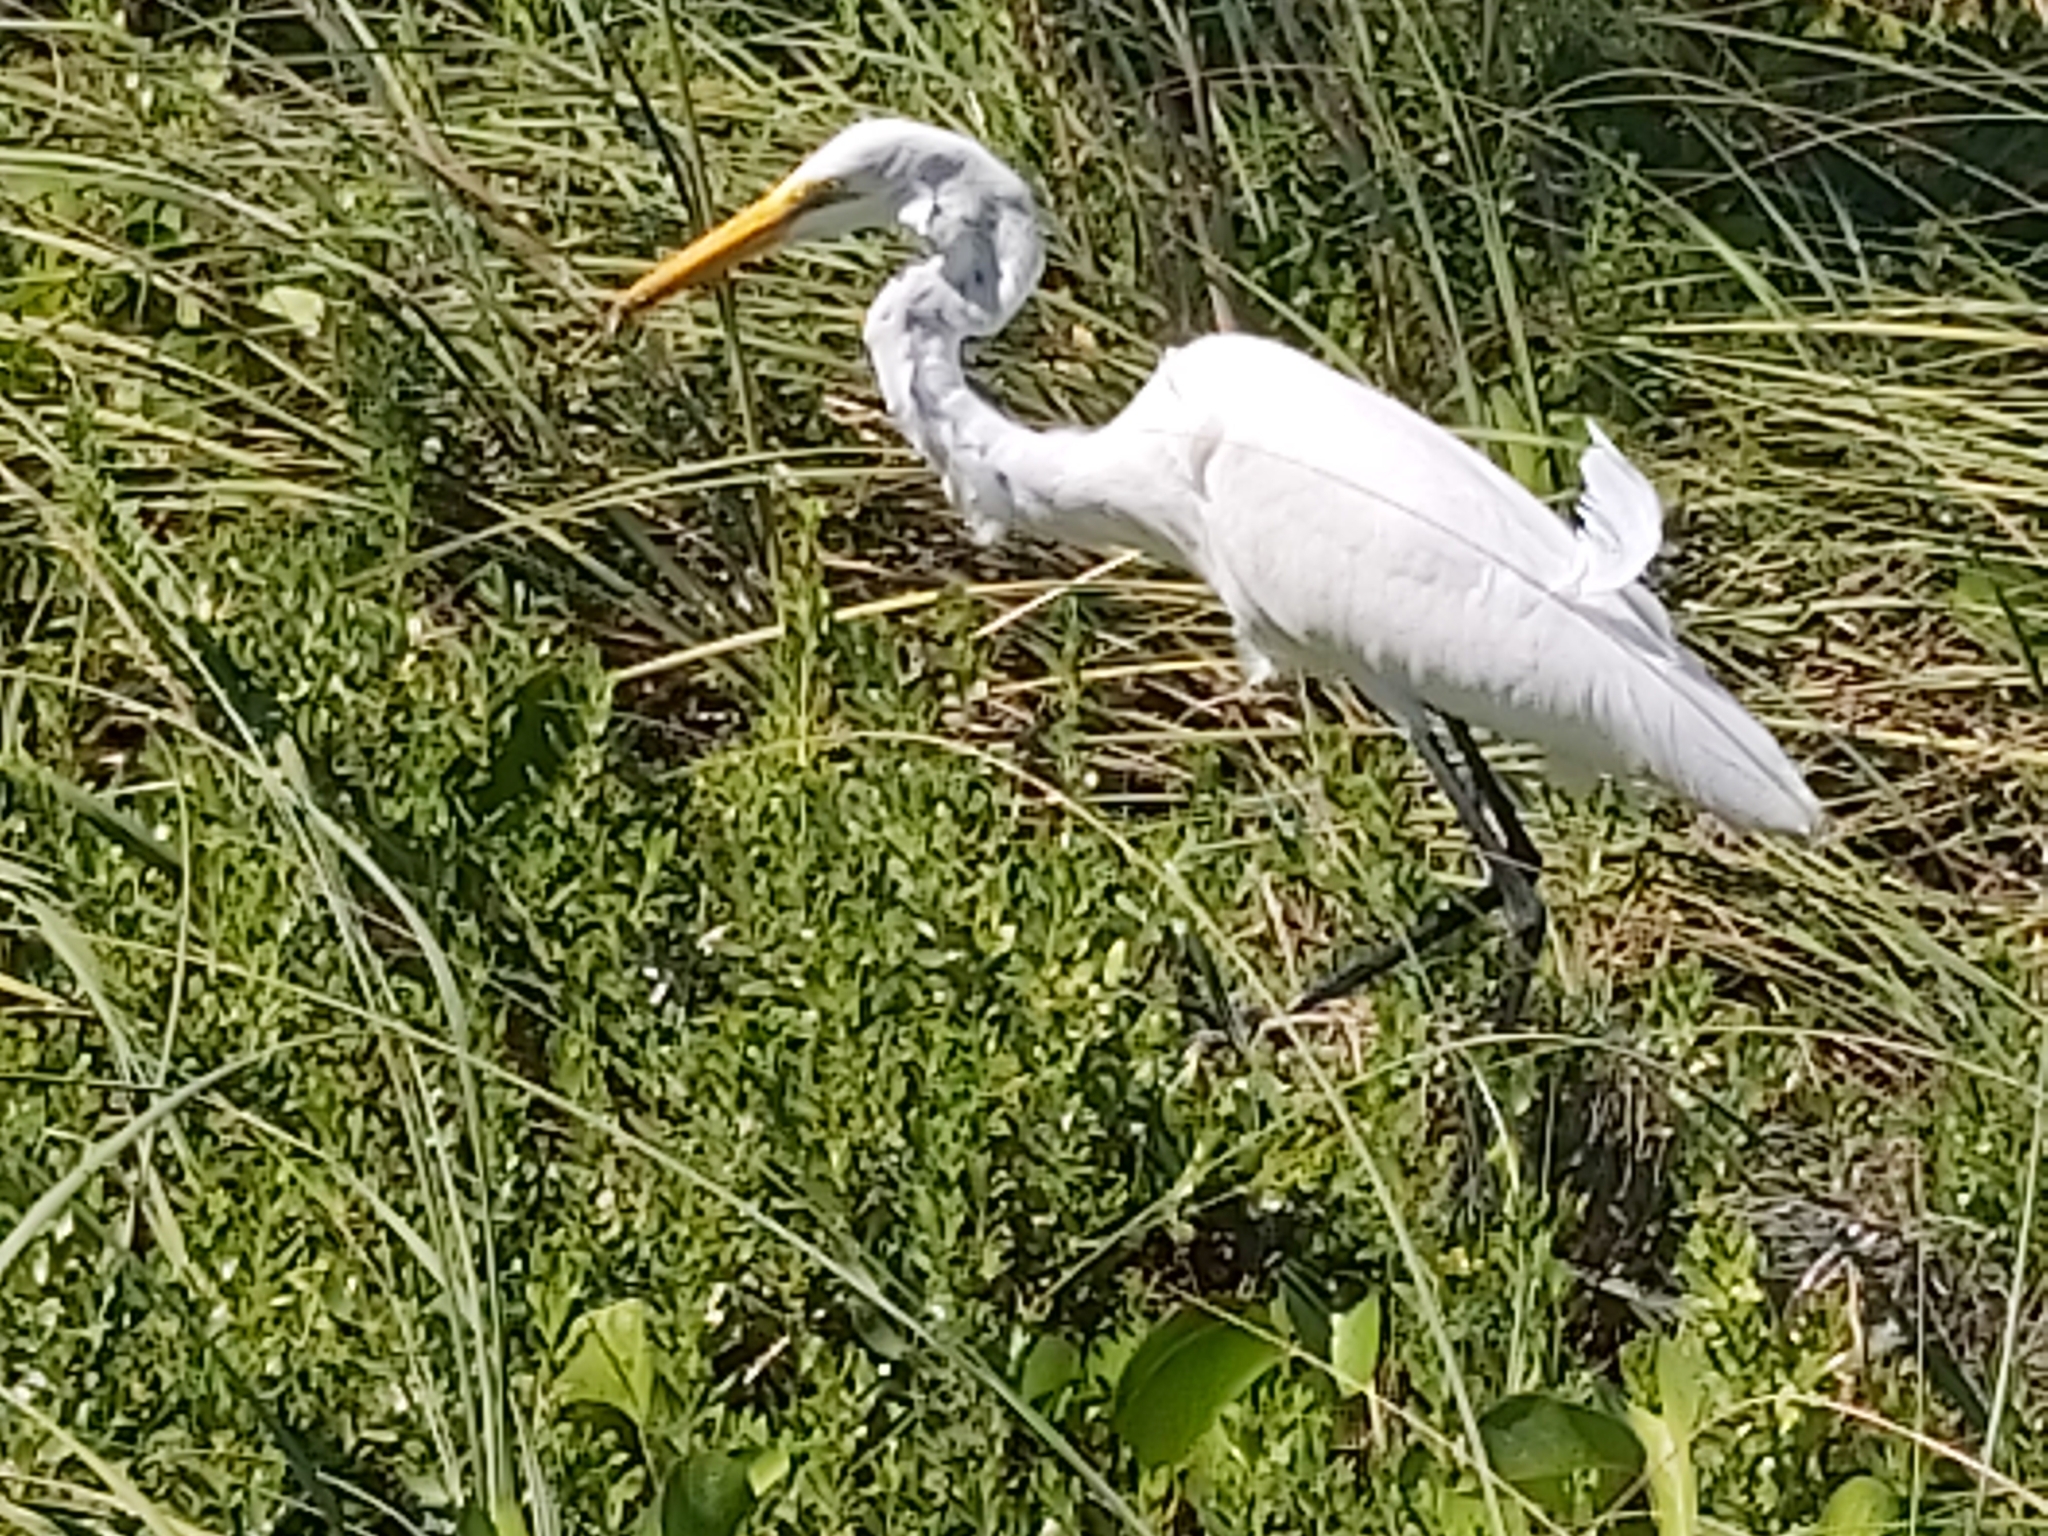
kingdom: Animalia
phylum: Chordata
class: Aves
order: Pelecaniformes
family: Ardeidae
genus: Ardea
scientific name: Ardea alba
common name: Great egret
